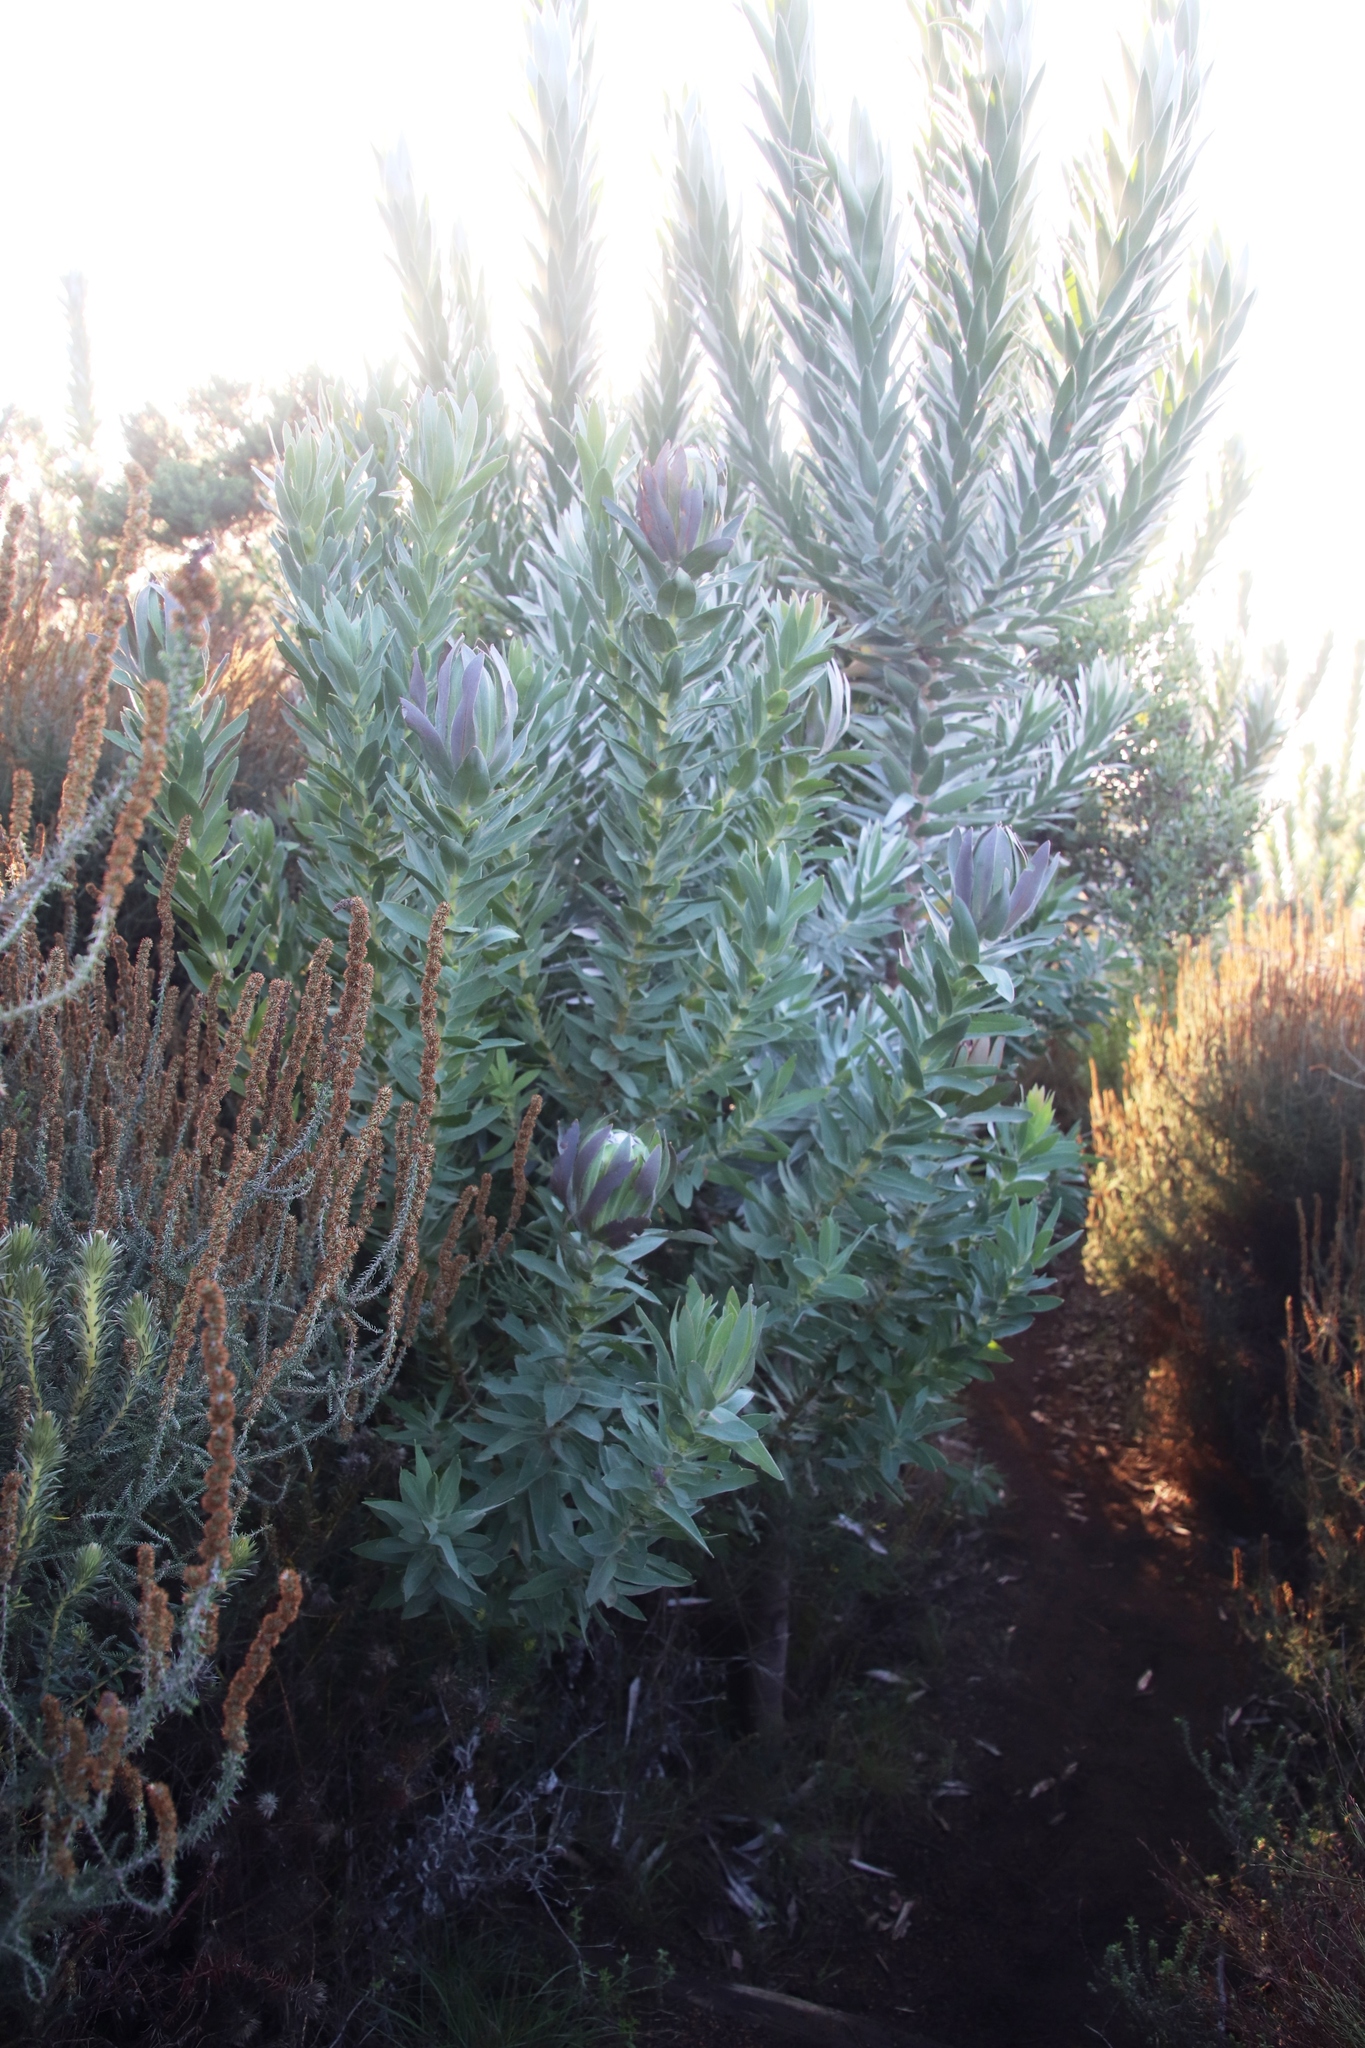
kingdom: Plantae
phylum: Tracheophyta
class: Magnoliopsida
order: Proteales
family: Proteaceae
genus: Protea
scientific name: Protea coronata
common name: Green sugarbush
